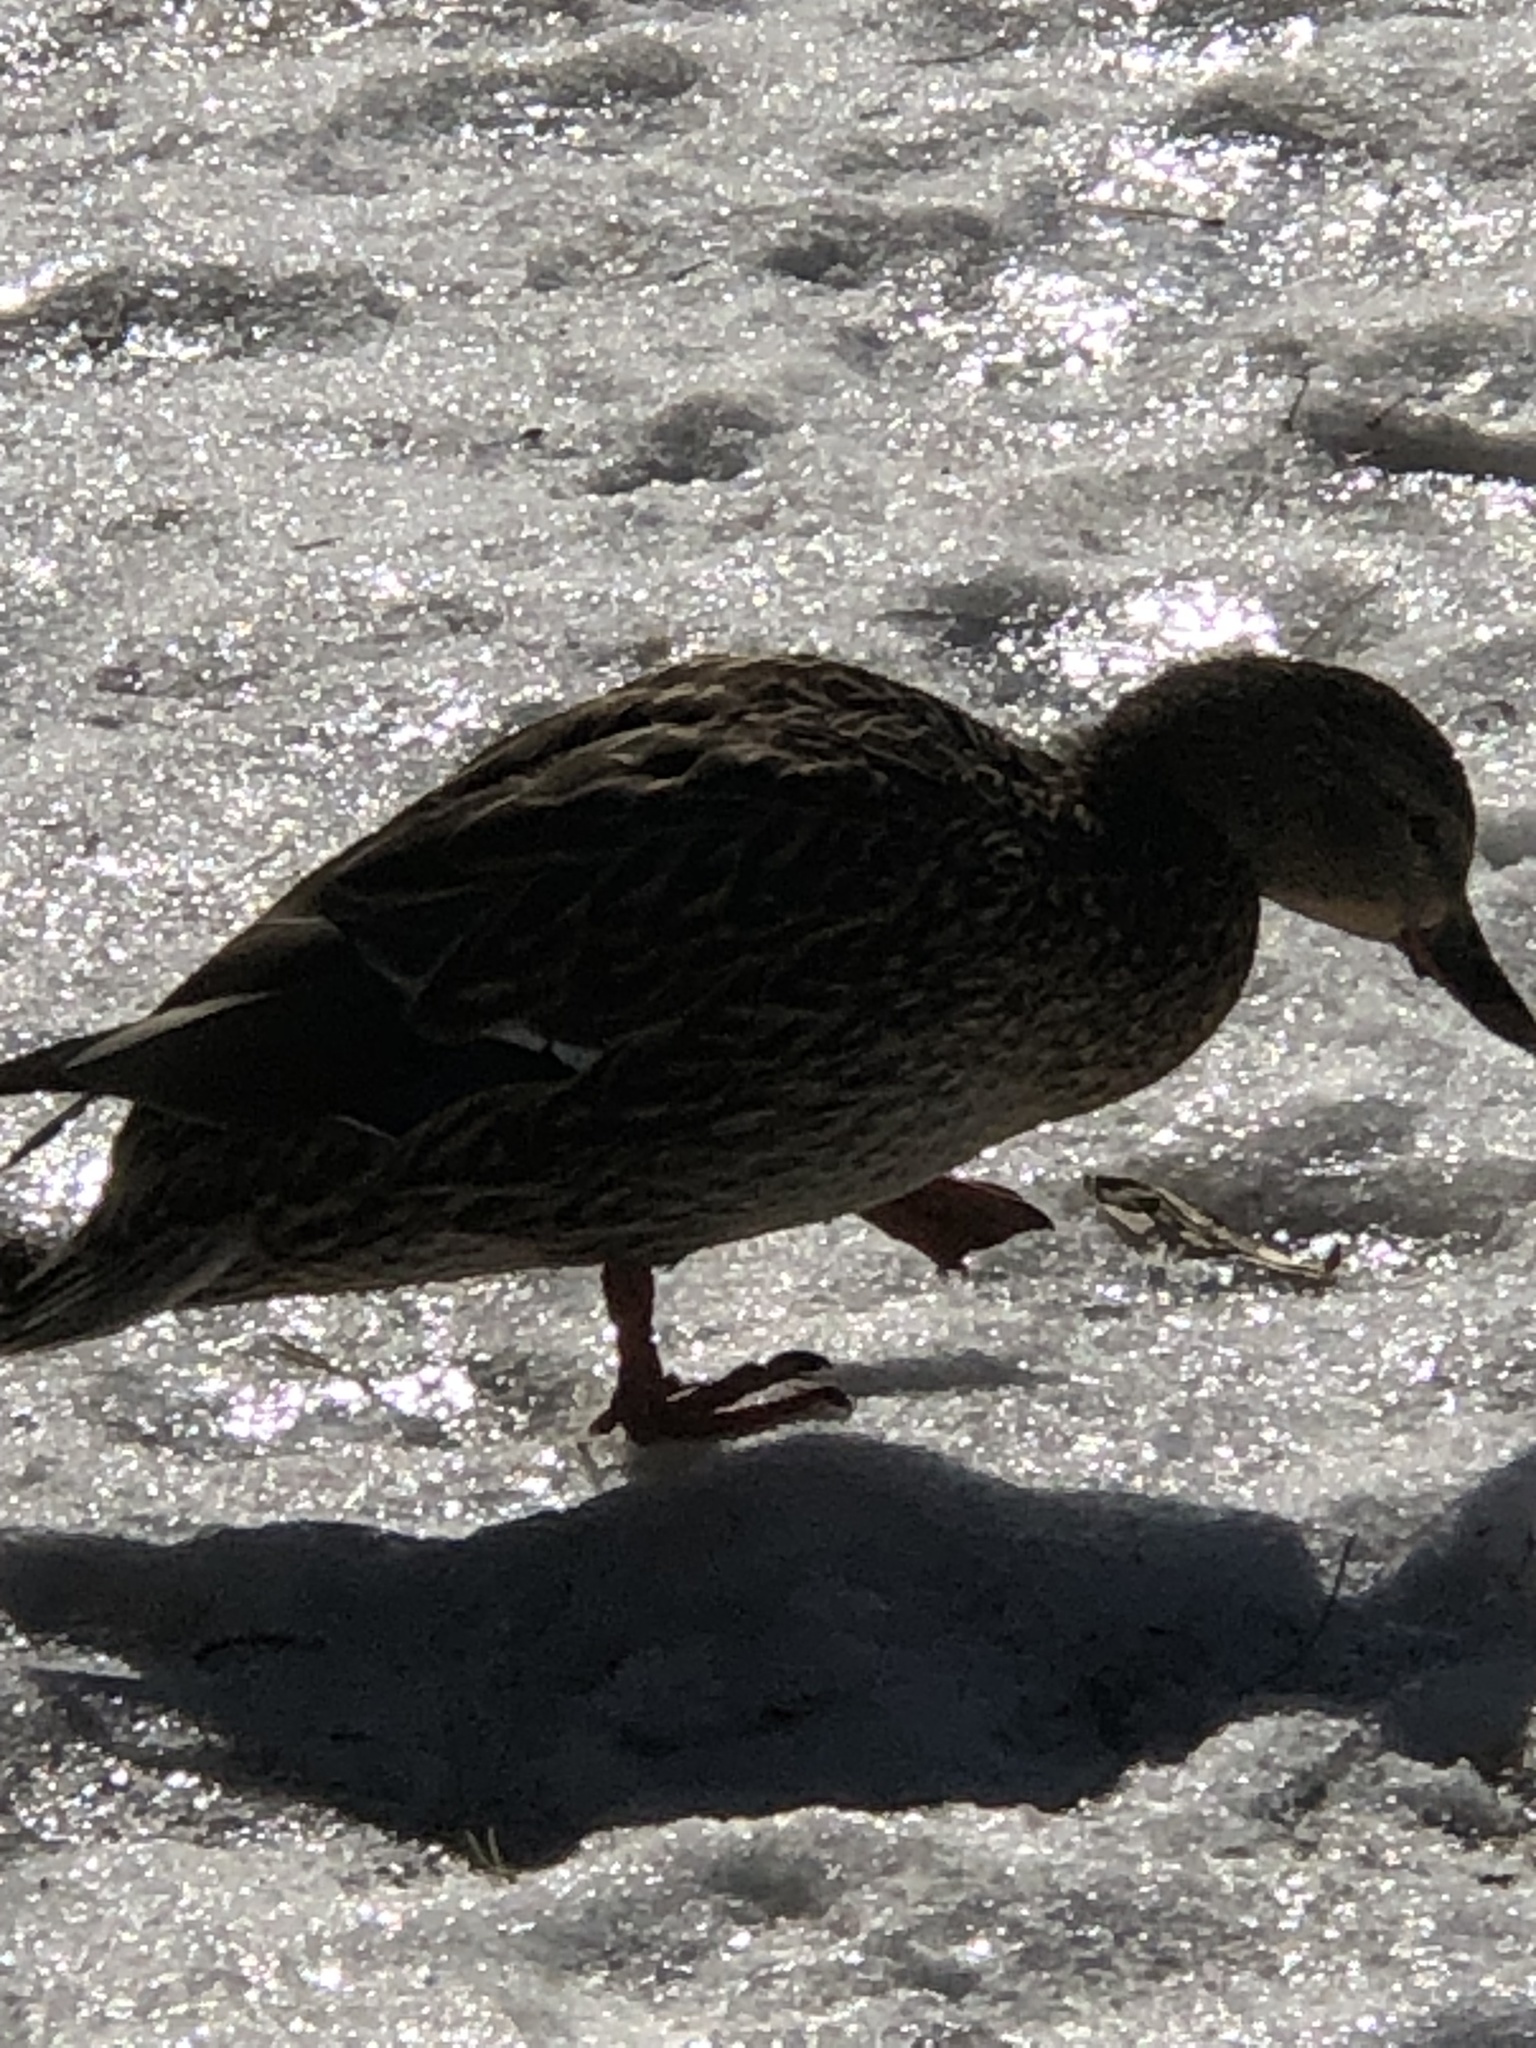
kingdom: Animalia
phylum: Chordata
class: Aves
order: Anseriformes
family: Anatidae
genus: Anas
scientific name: Anas platyrhynchos
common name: Mallard
